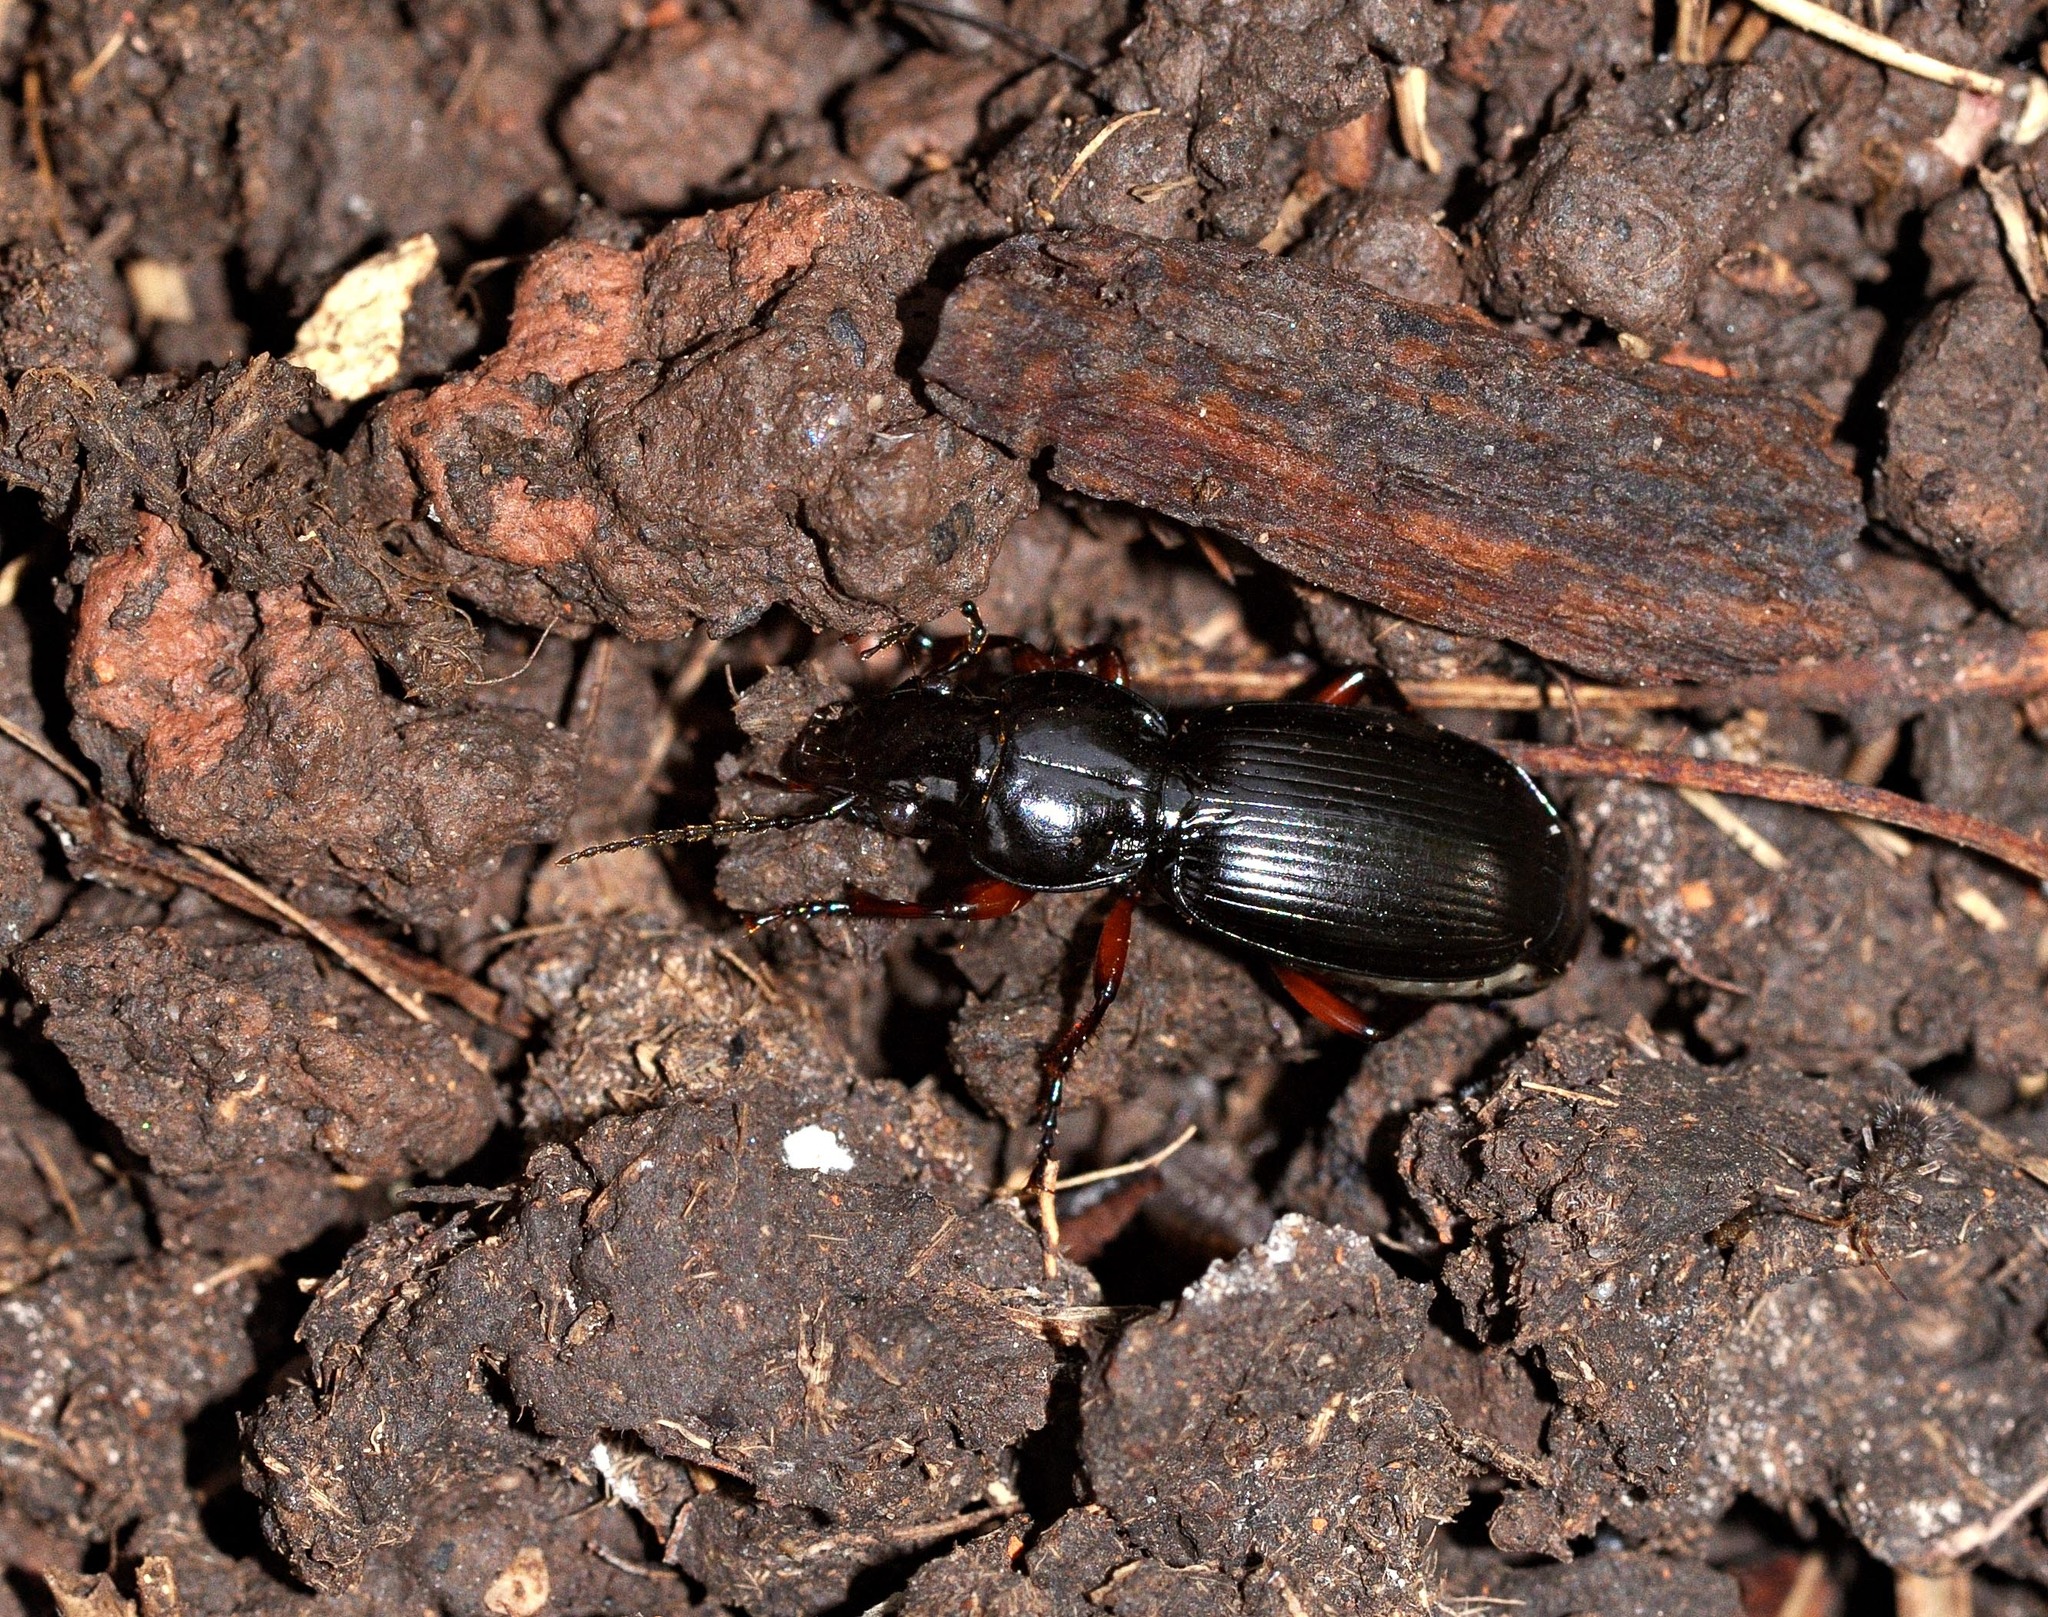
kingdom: Animalia
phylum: Arthropoda
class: Insecta
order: Coleoptera
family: Carabidae
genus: Pterostichus
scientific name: Pterostichus madidus
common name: Black clock
